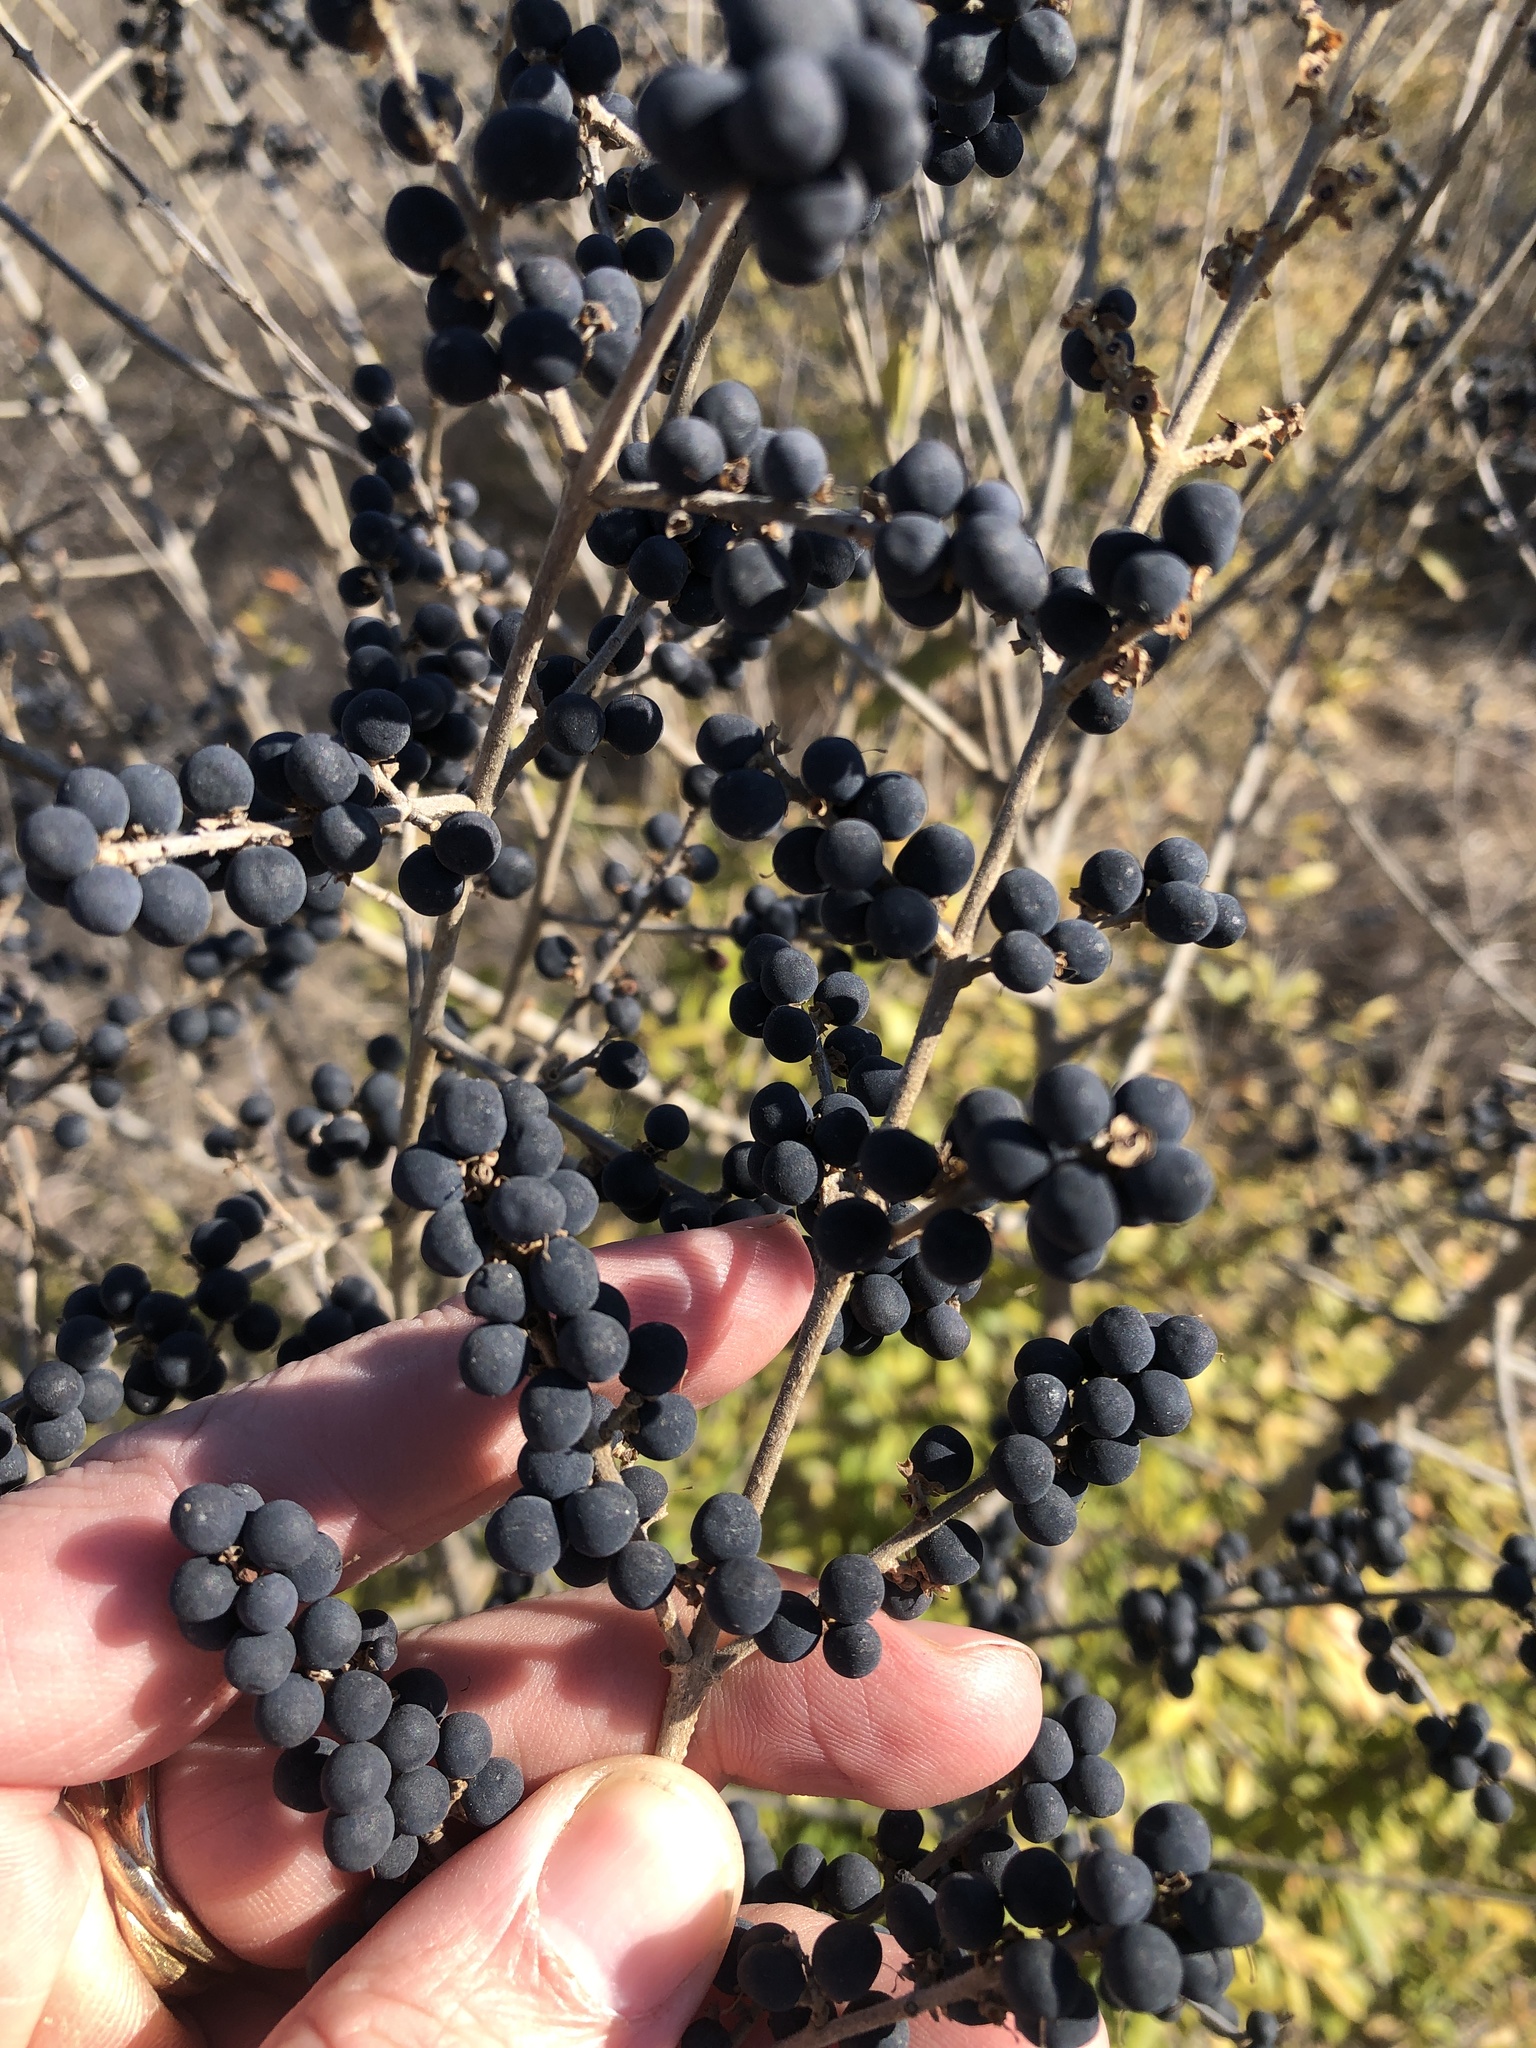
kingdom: Plantae
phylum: Tracheophyta
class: Magnoliopsida
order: Lamiales
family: Oleaceae
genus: Ligustrum
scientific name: Ligustrum quihoui
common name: Waxyleaf privet
